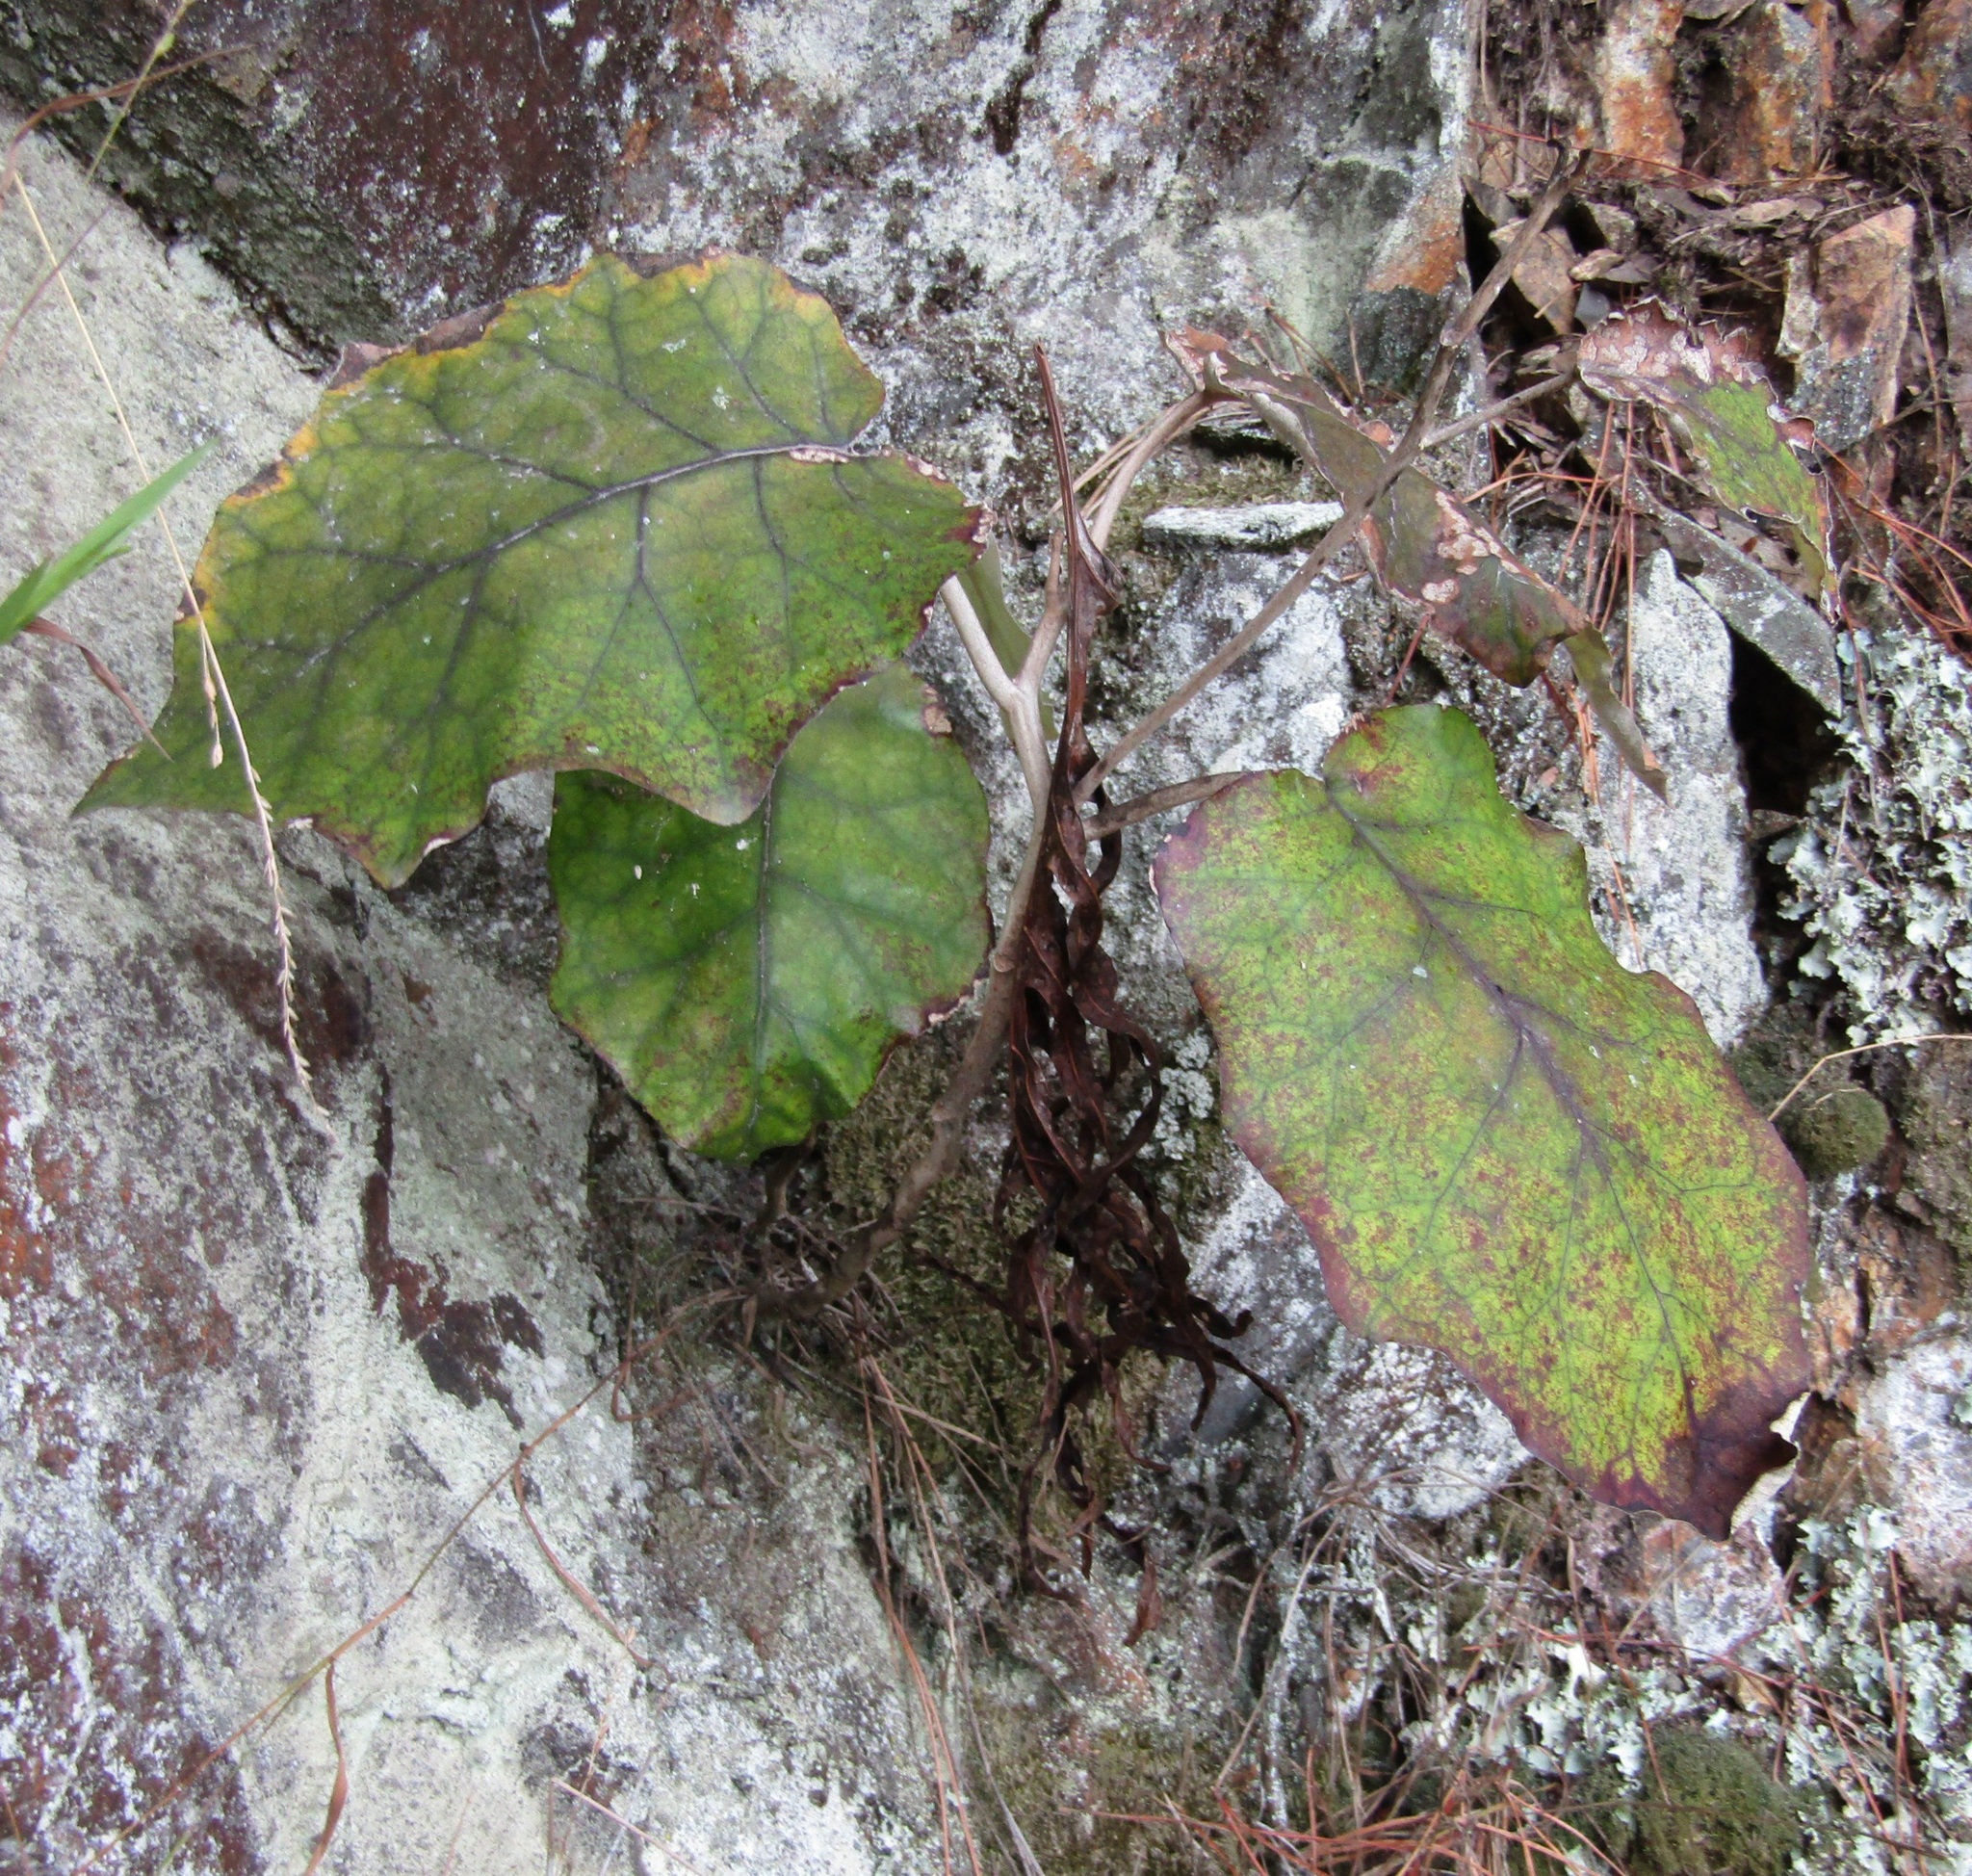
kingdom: Plantae
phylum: Tracheophyta
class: Magnoliopsida
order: Asterales
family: Asteraceae
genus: Brachyglottis
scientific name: Brachyglottis repanda
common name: Hedge ragwort
